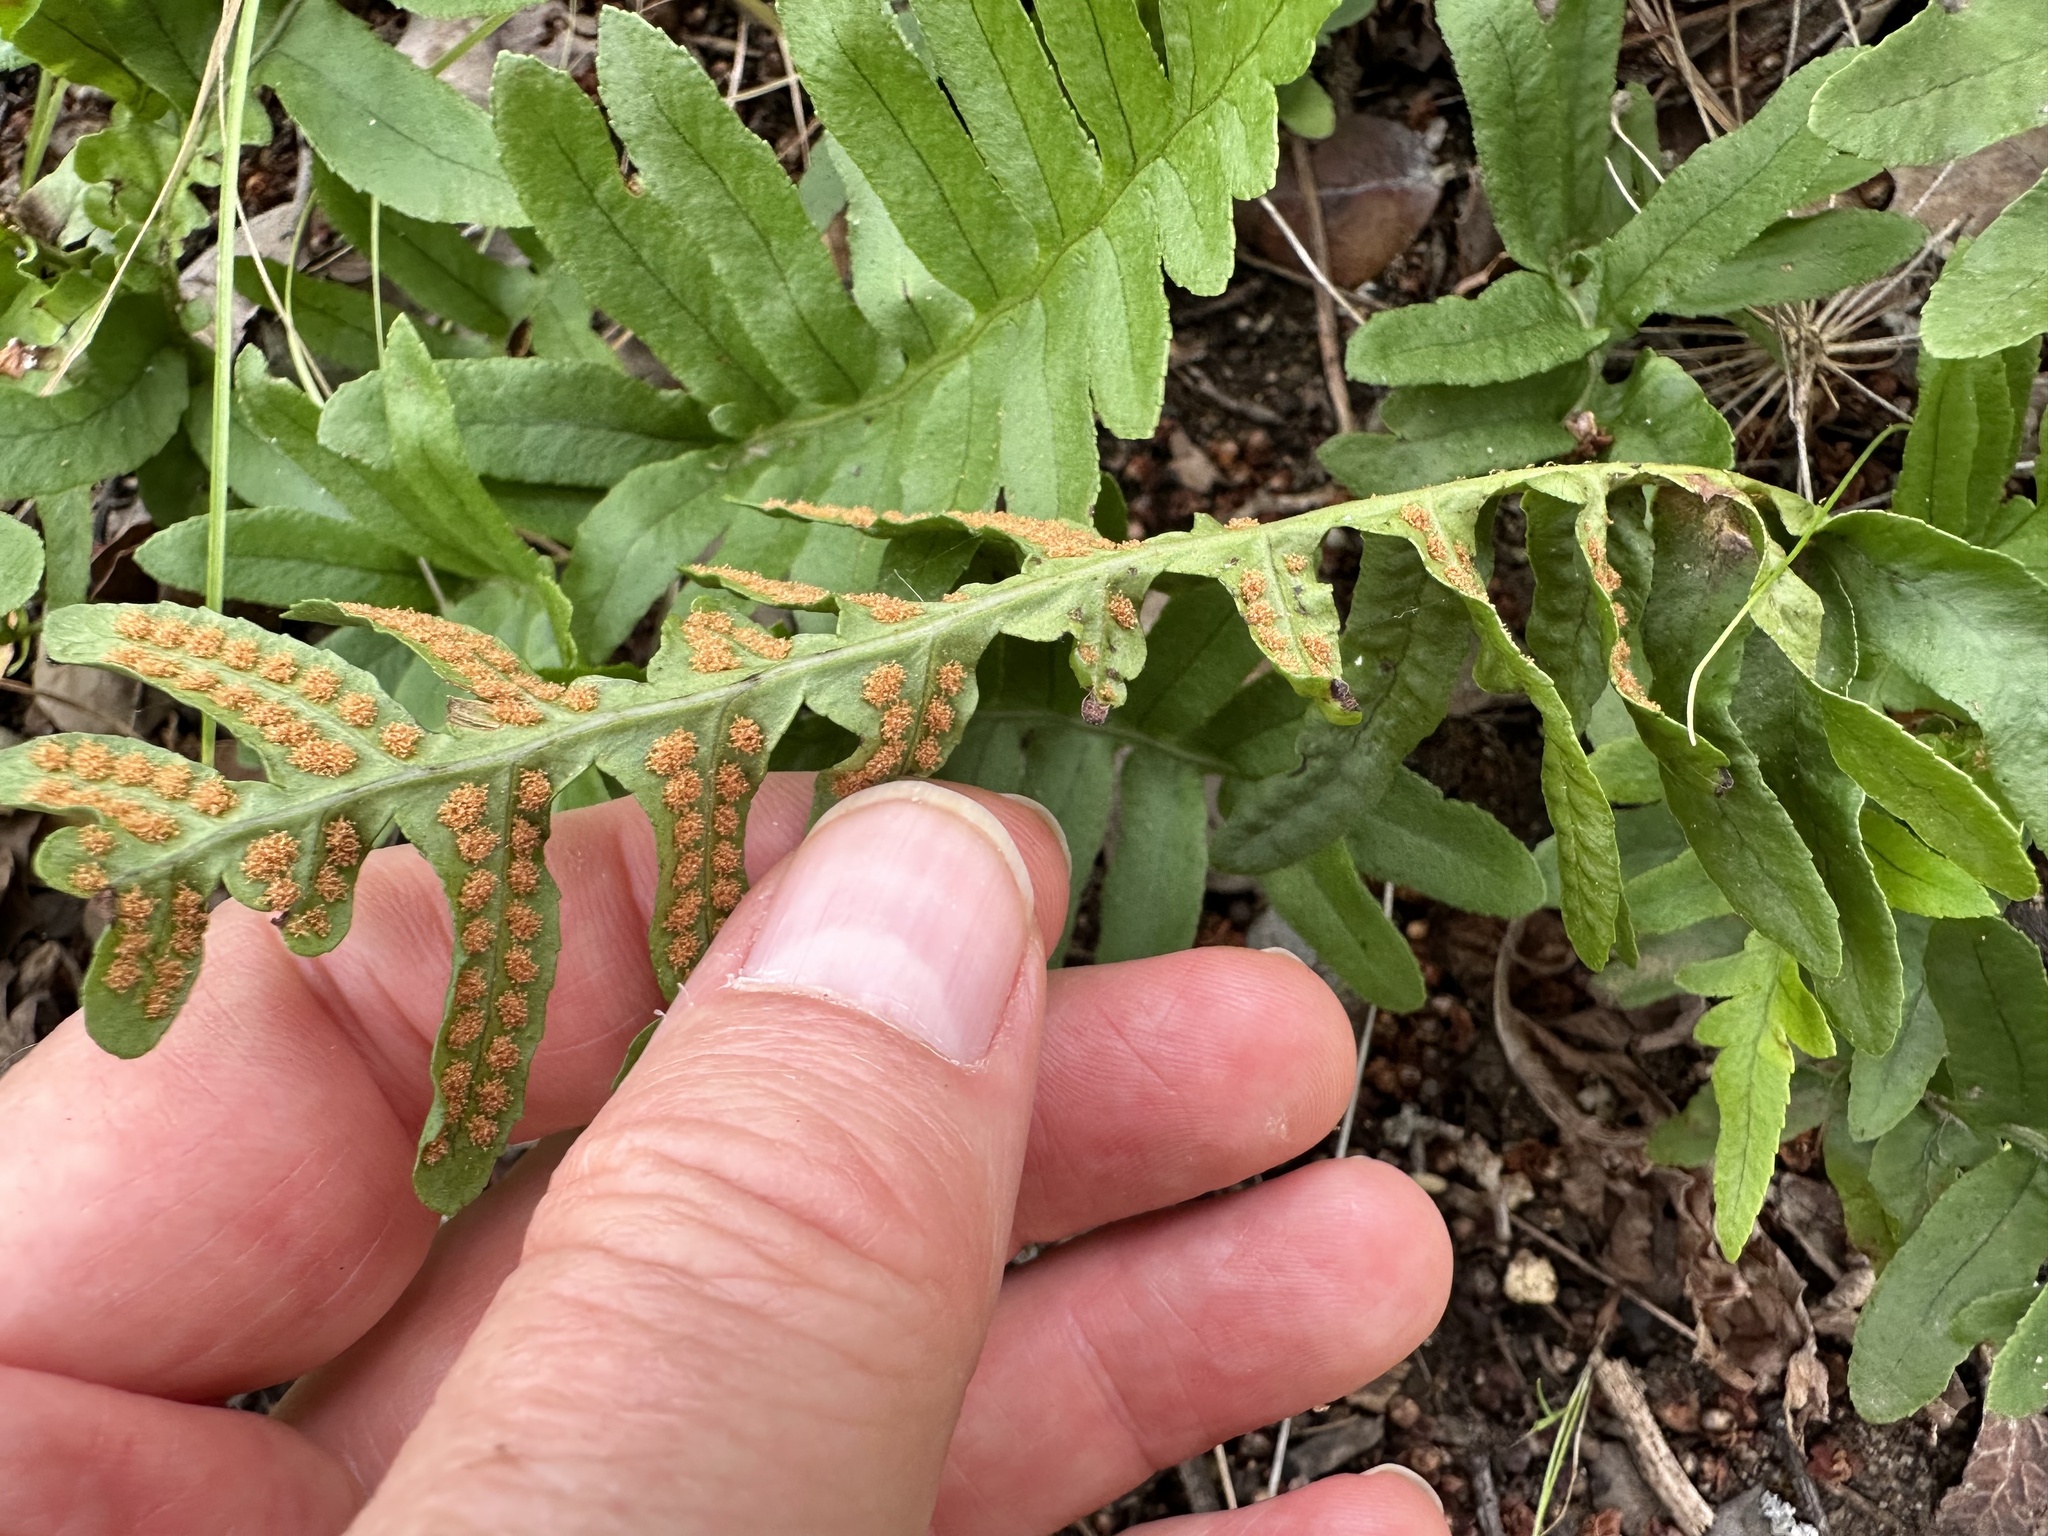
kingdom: Plantae
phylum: Tracheophyta
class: Polypodiopsida
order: Polypodiales
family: Polypodiaceae
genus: Polypodium
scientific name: Polypodium californicum
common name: California polypody
